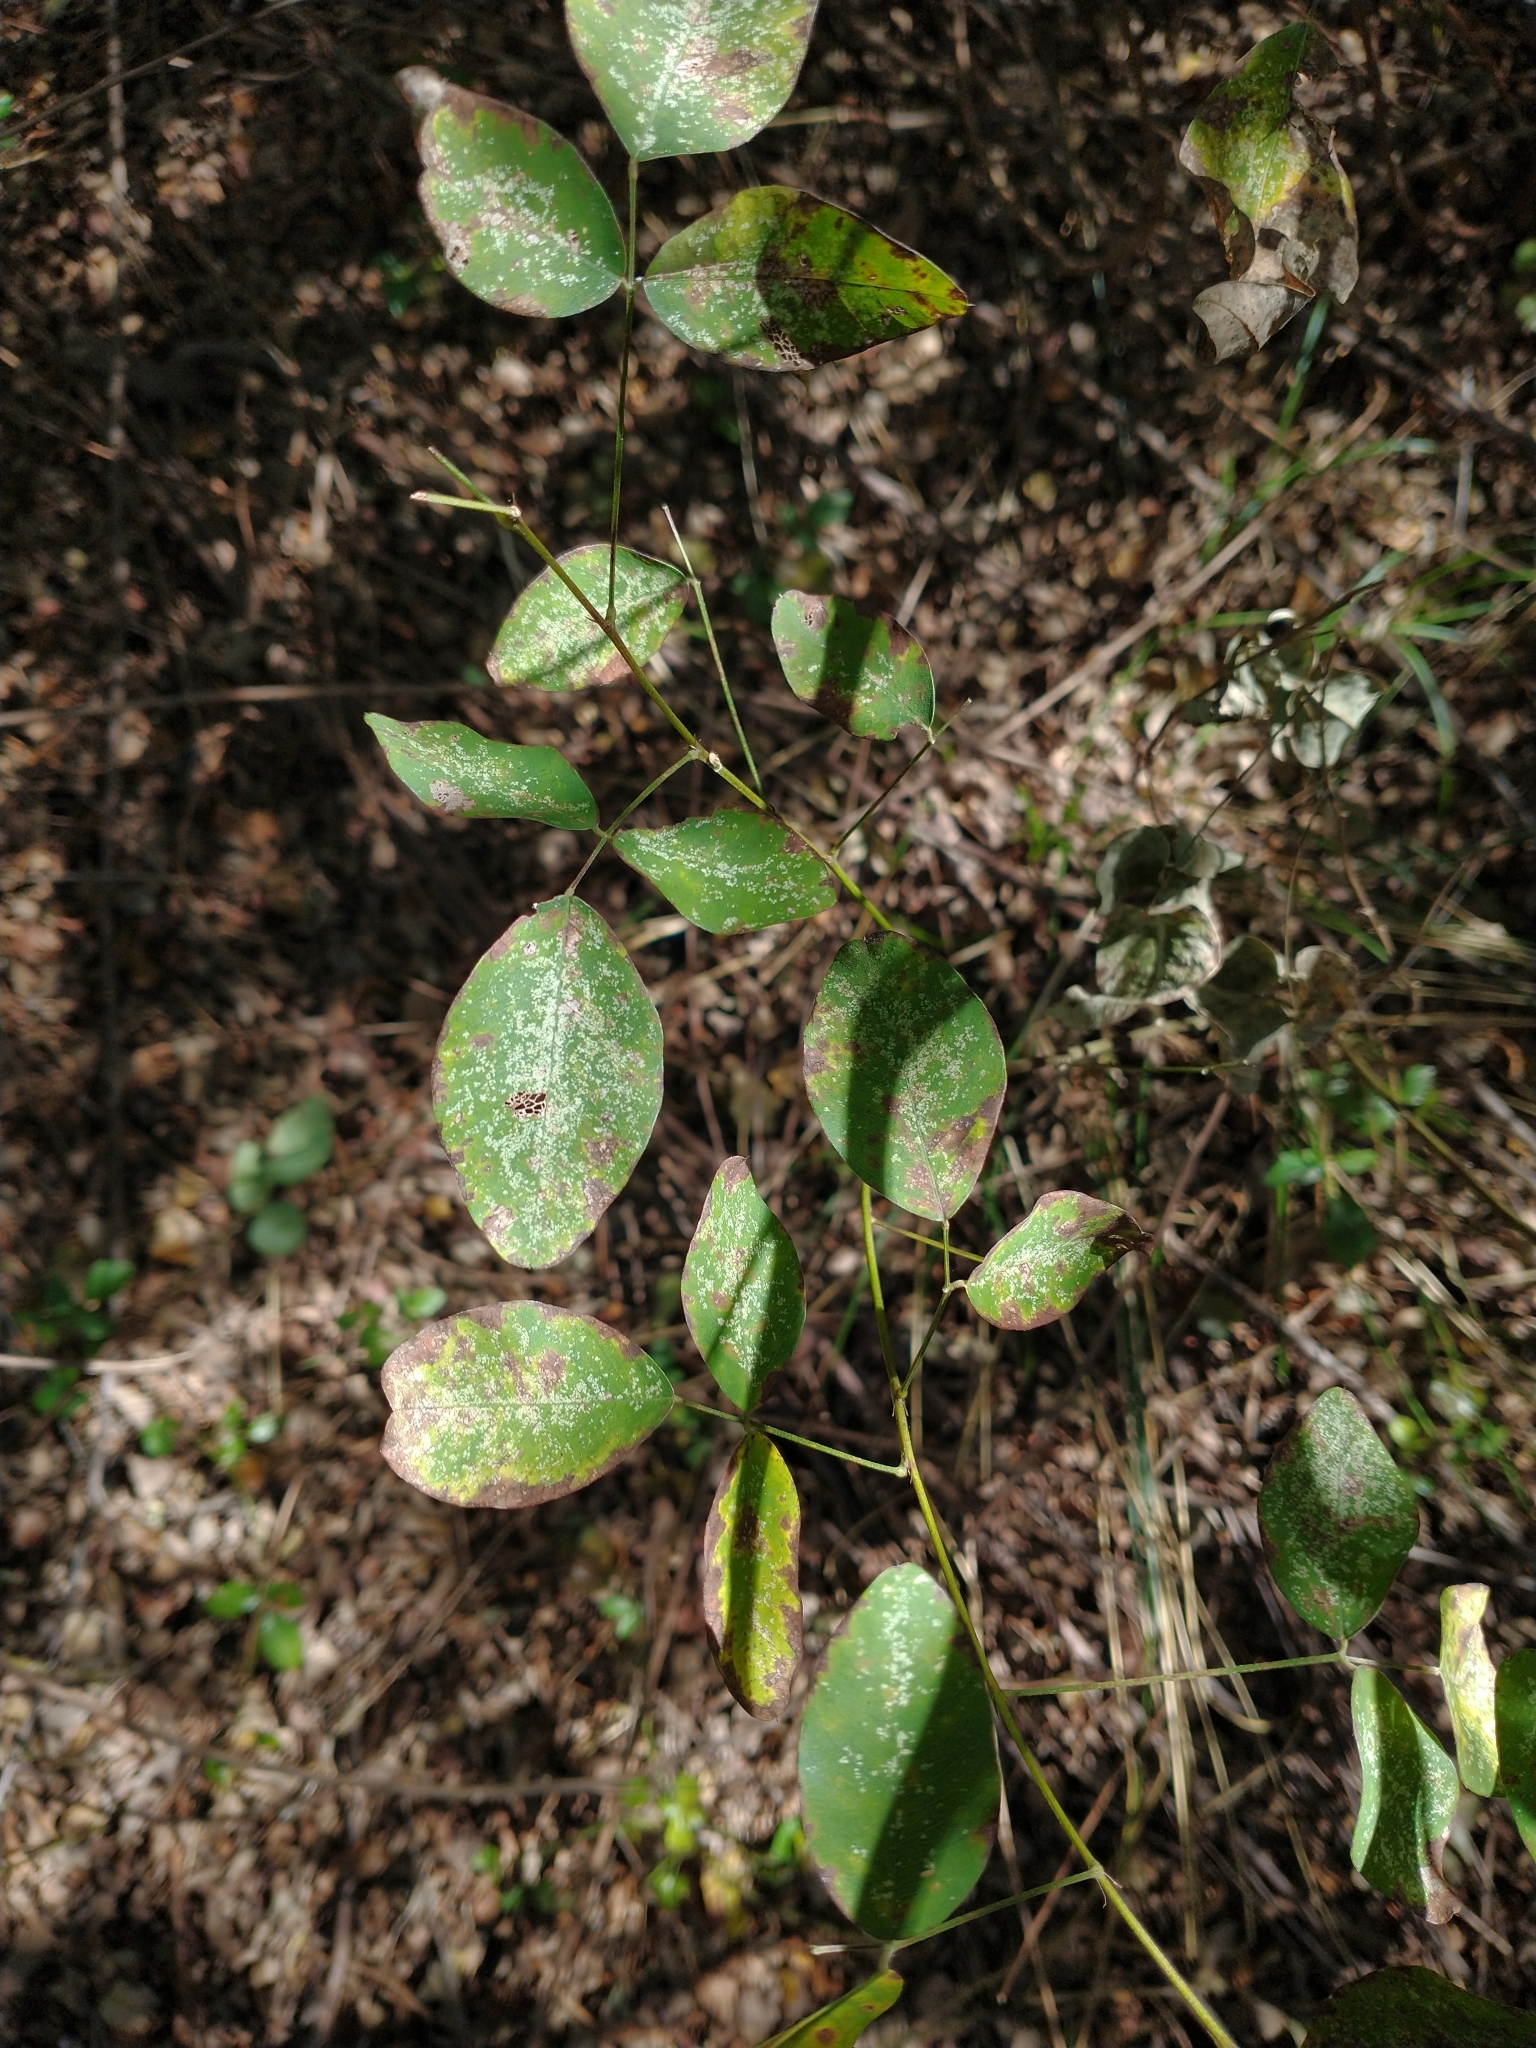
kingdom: Plantae
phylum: Tracheophyta
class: Magnoliopsida
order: Fabales
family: Fabaceae
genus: Lespedeza
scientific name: Lespedeza bicolor
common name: Shrub lespedeza
